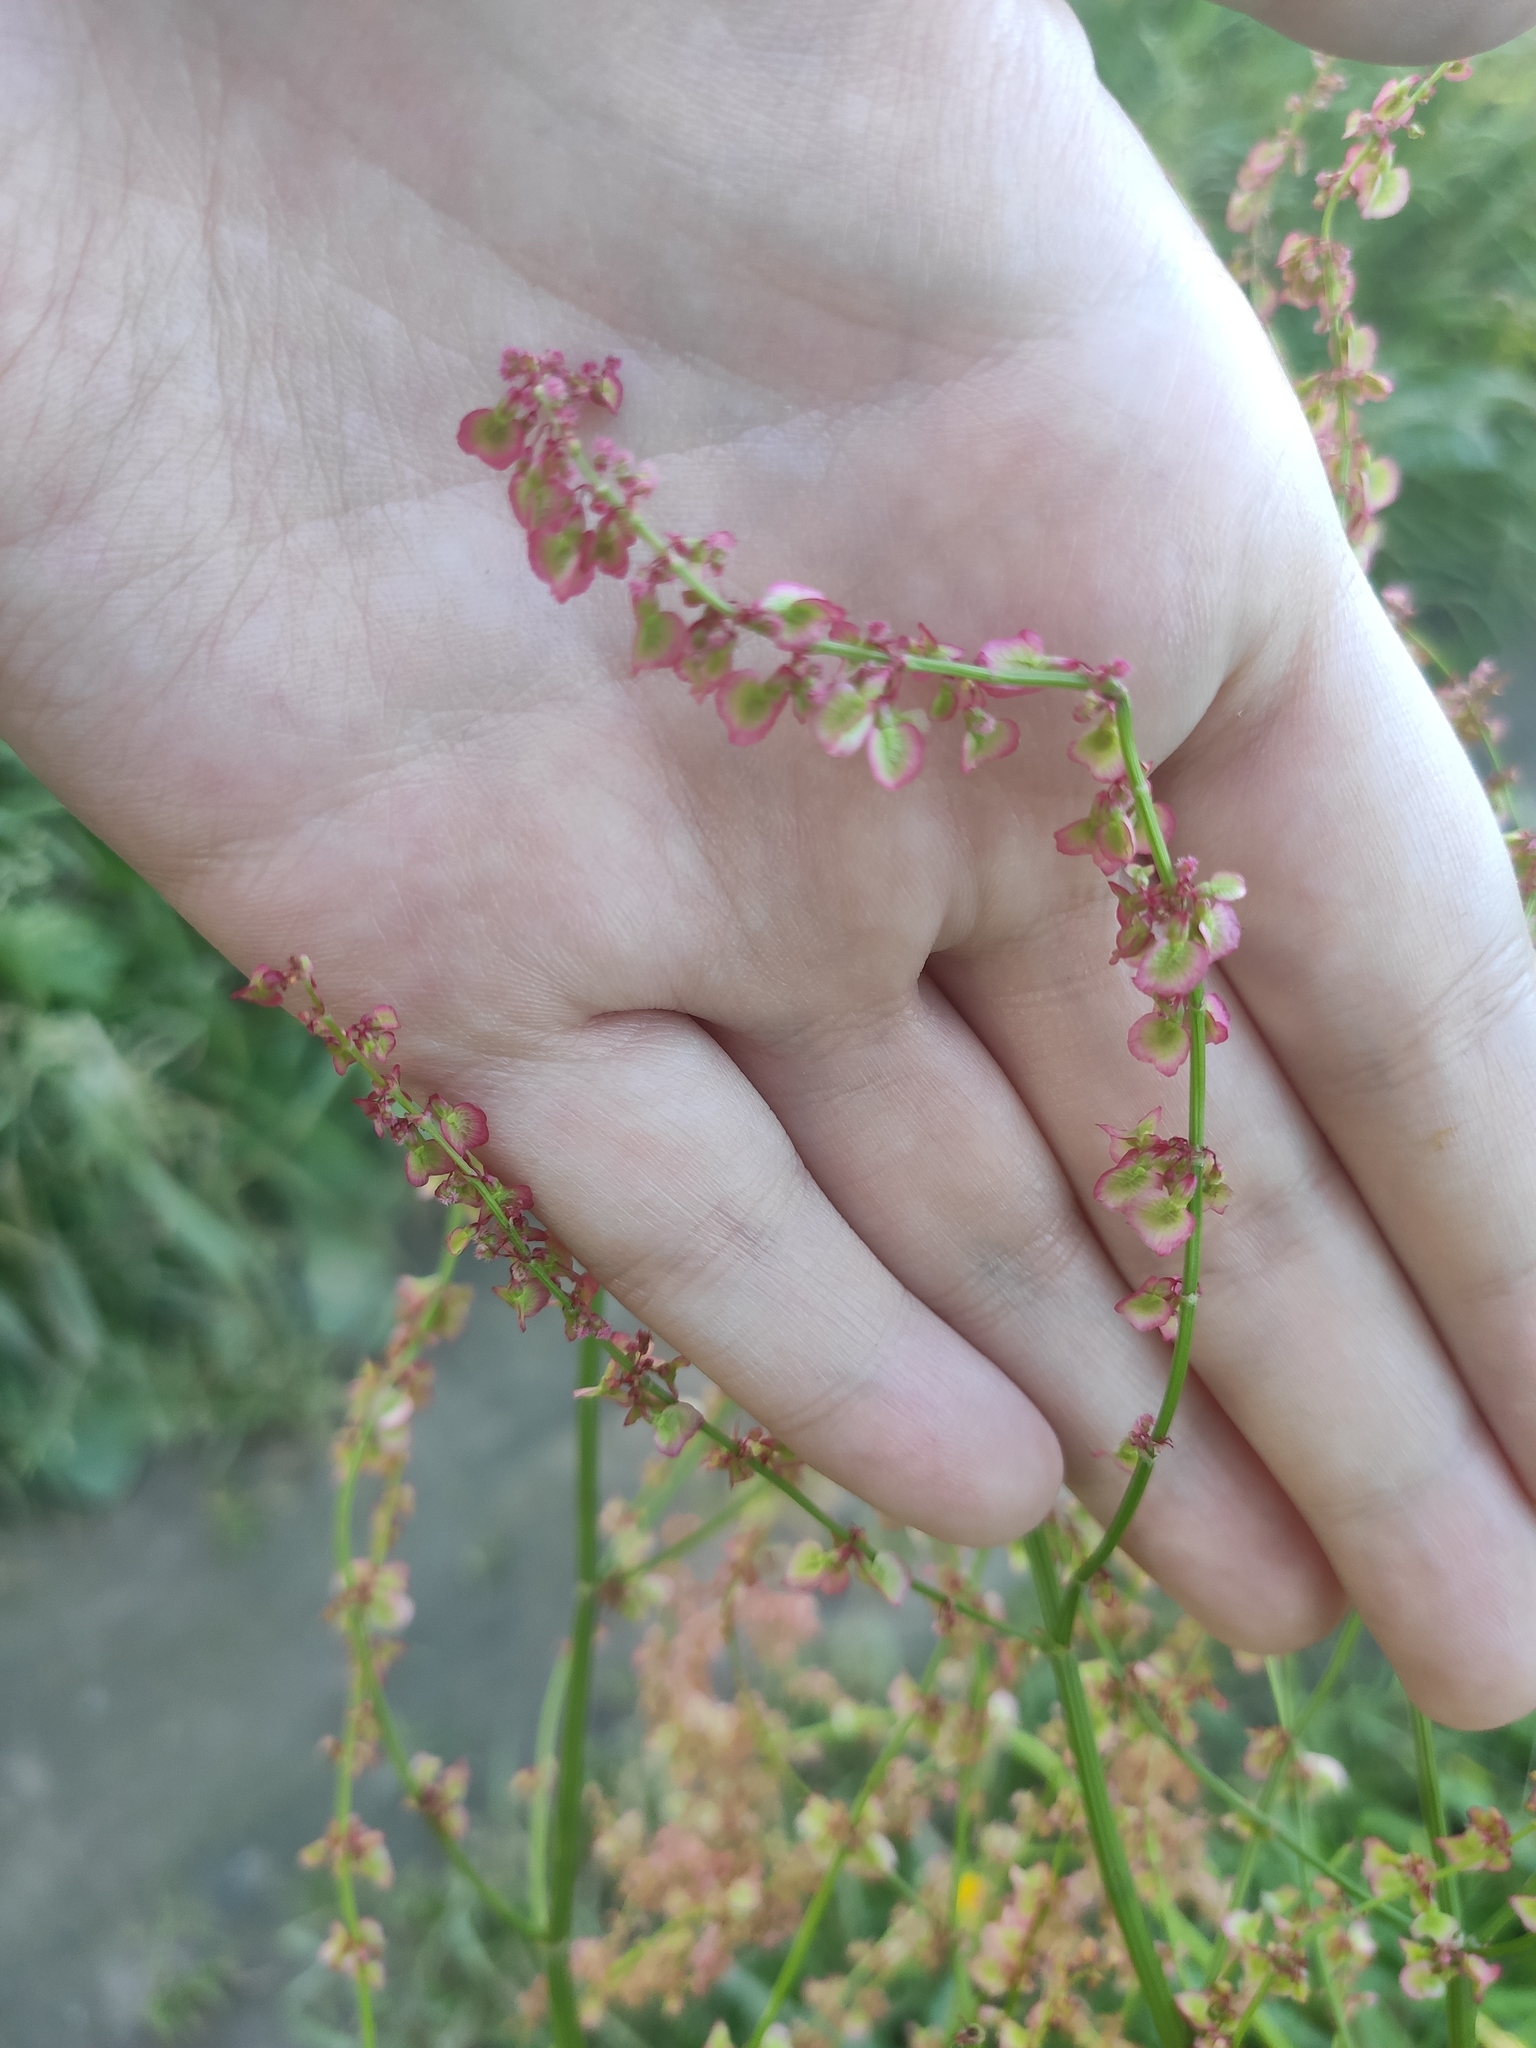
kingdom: Plantae
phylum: Tracheophyta
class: Magnoliopsida
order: Caryophyllales
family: Polygonaceae
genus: Rumex
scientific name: Rumex acetosella
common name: Common sheep sorrel
